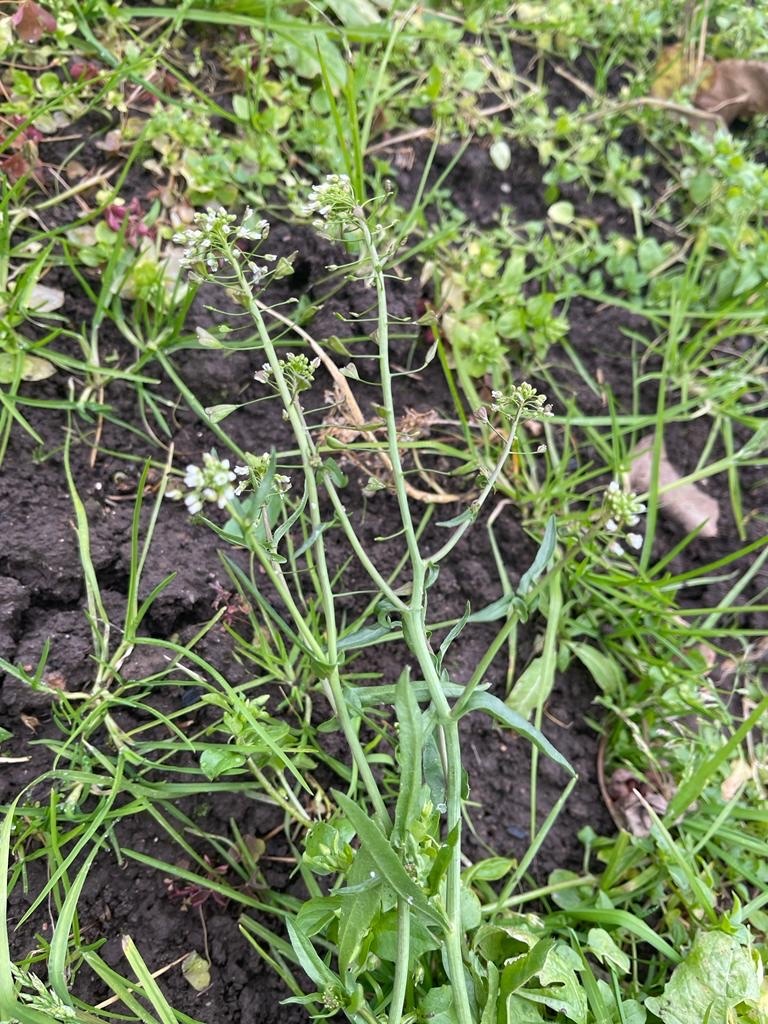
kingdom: Plantae
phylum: Tracheophyta
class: Magnoliopsida
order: Brassicales
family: Brassicaceae
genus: Capsella
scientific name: Capsella bursa-pastoris
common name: Shepherd's purse
